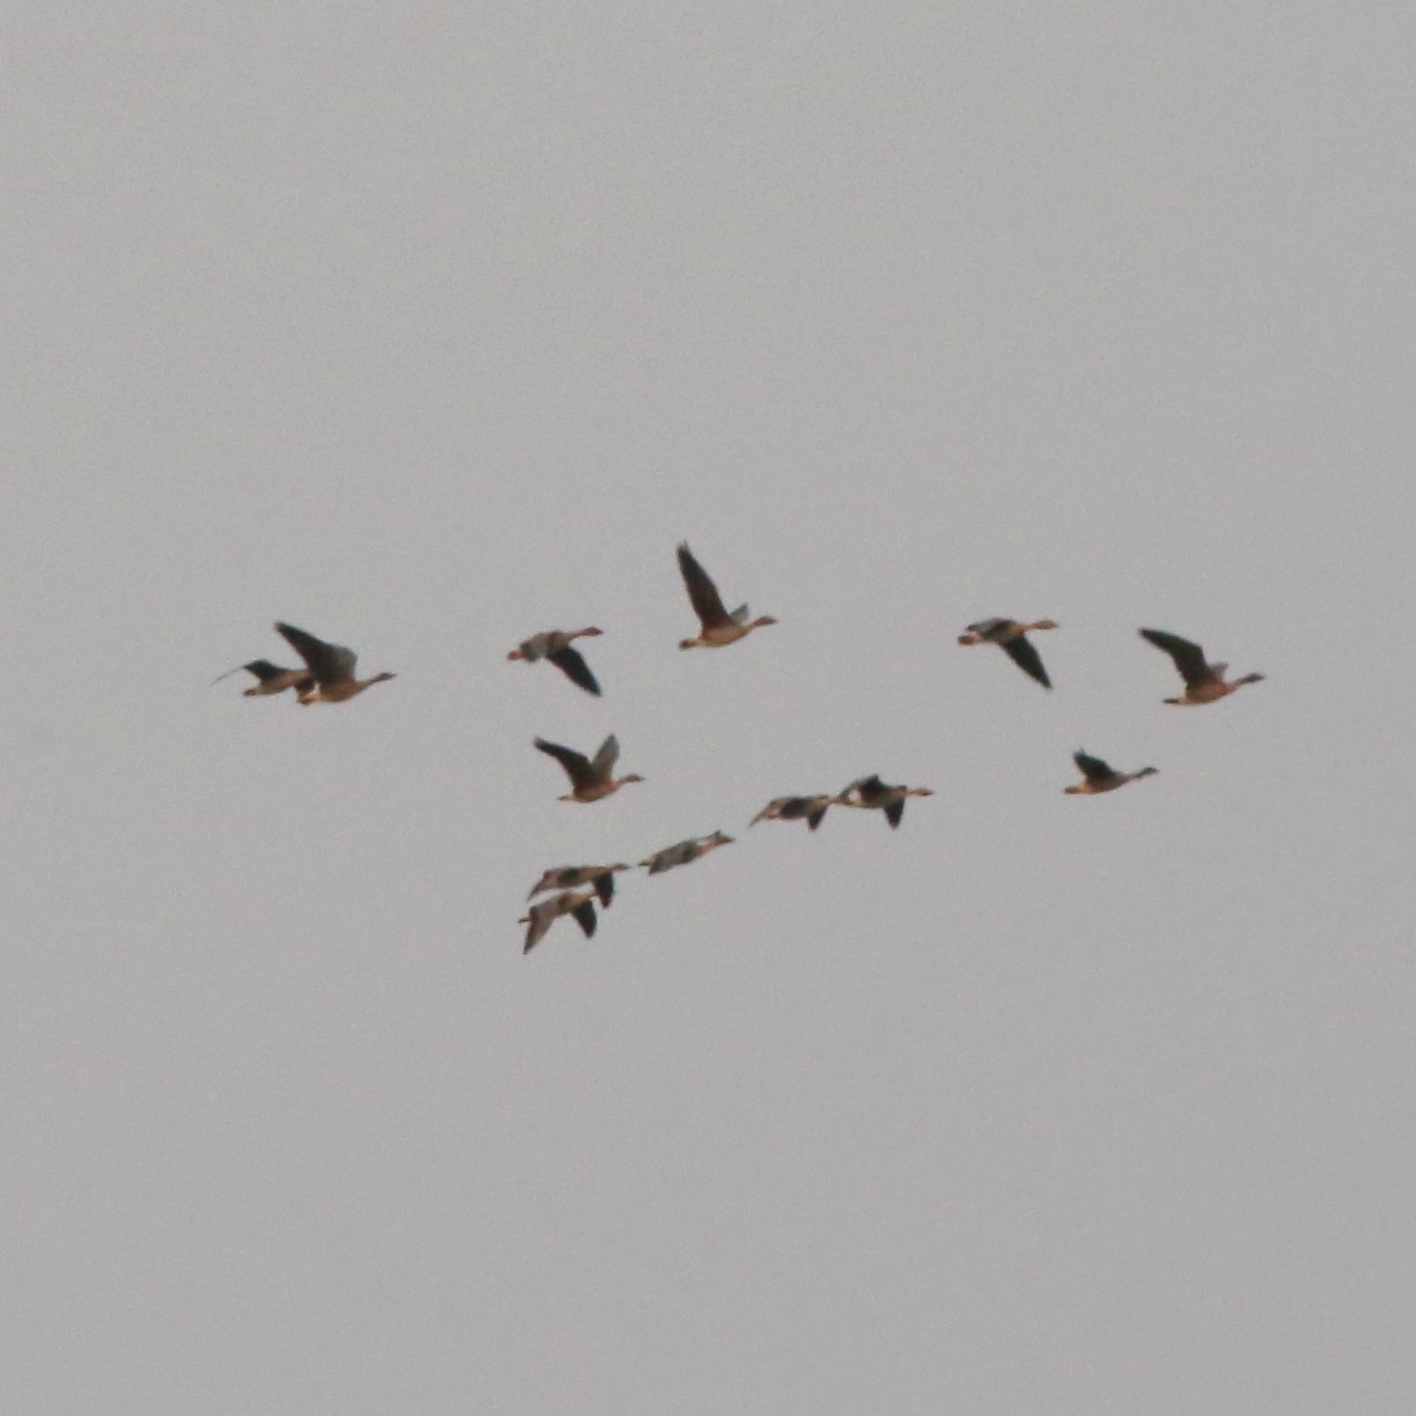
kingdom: Animalia
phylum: Chordata
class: Aves
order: Anseriformes
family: Anatidae
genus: Anser
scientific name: Anser fabalis
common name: Bean goose
